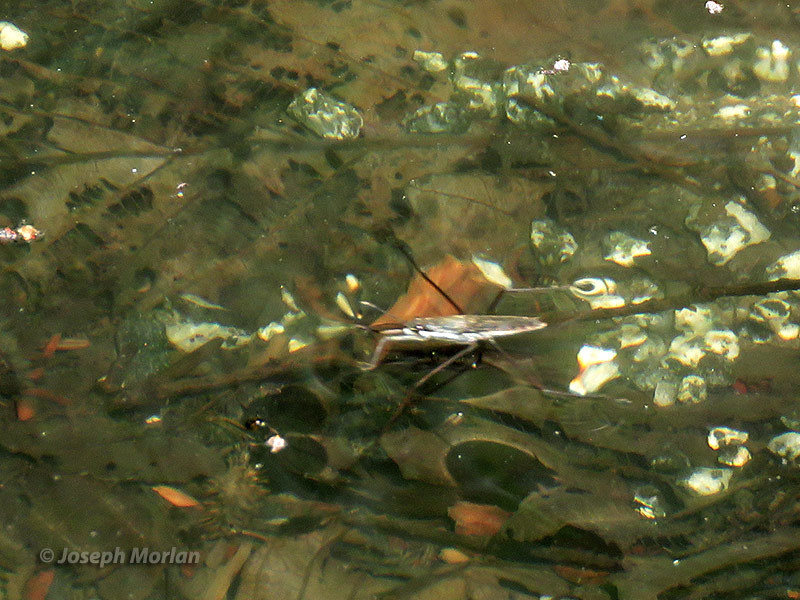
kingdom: Animalia
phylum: Arthropoda
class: Insecta
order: Hemiptera
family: Gerridae
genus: Aquarius
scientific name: Aquarius remigis
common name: Common water strider
